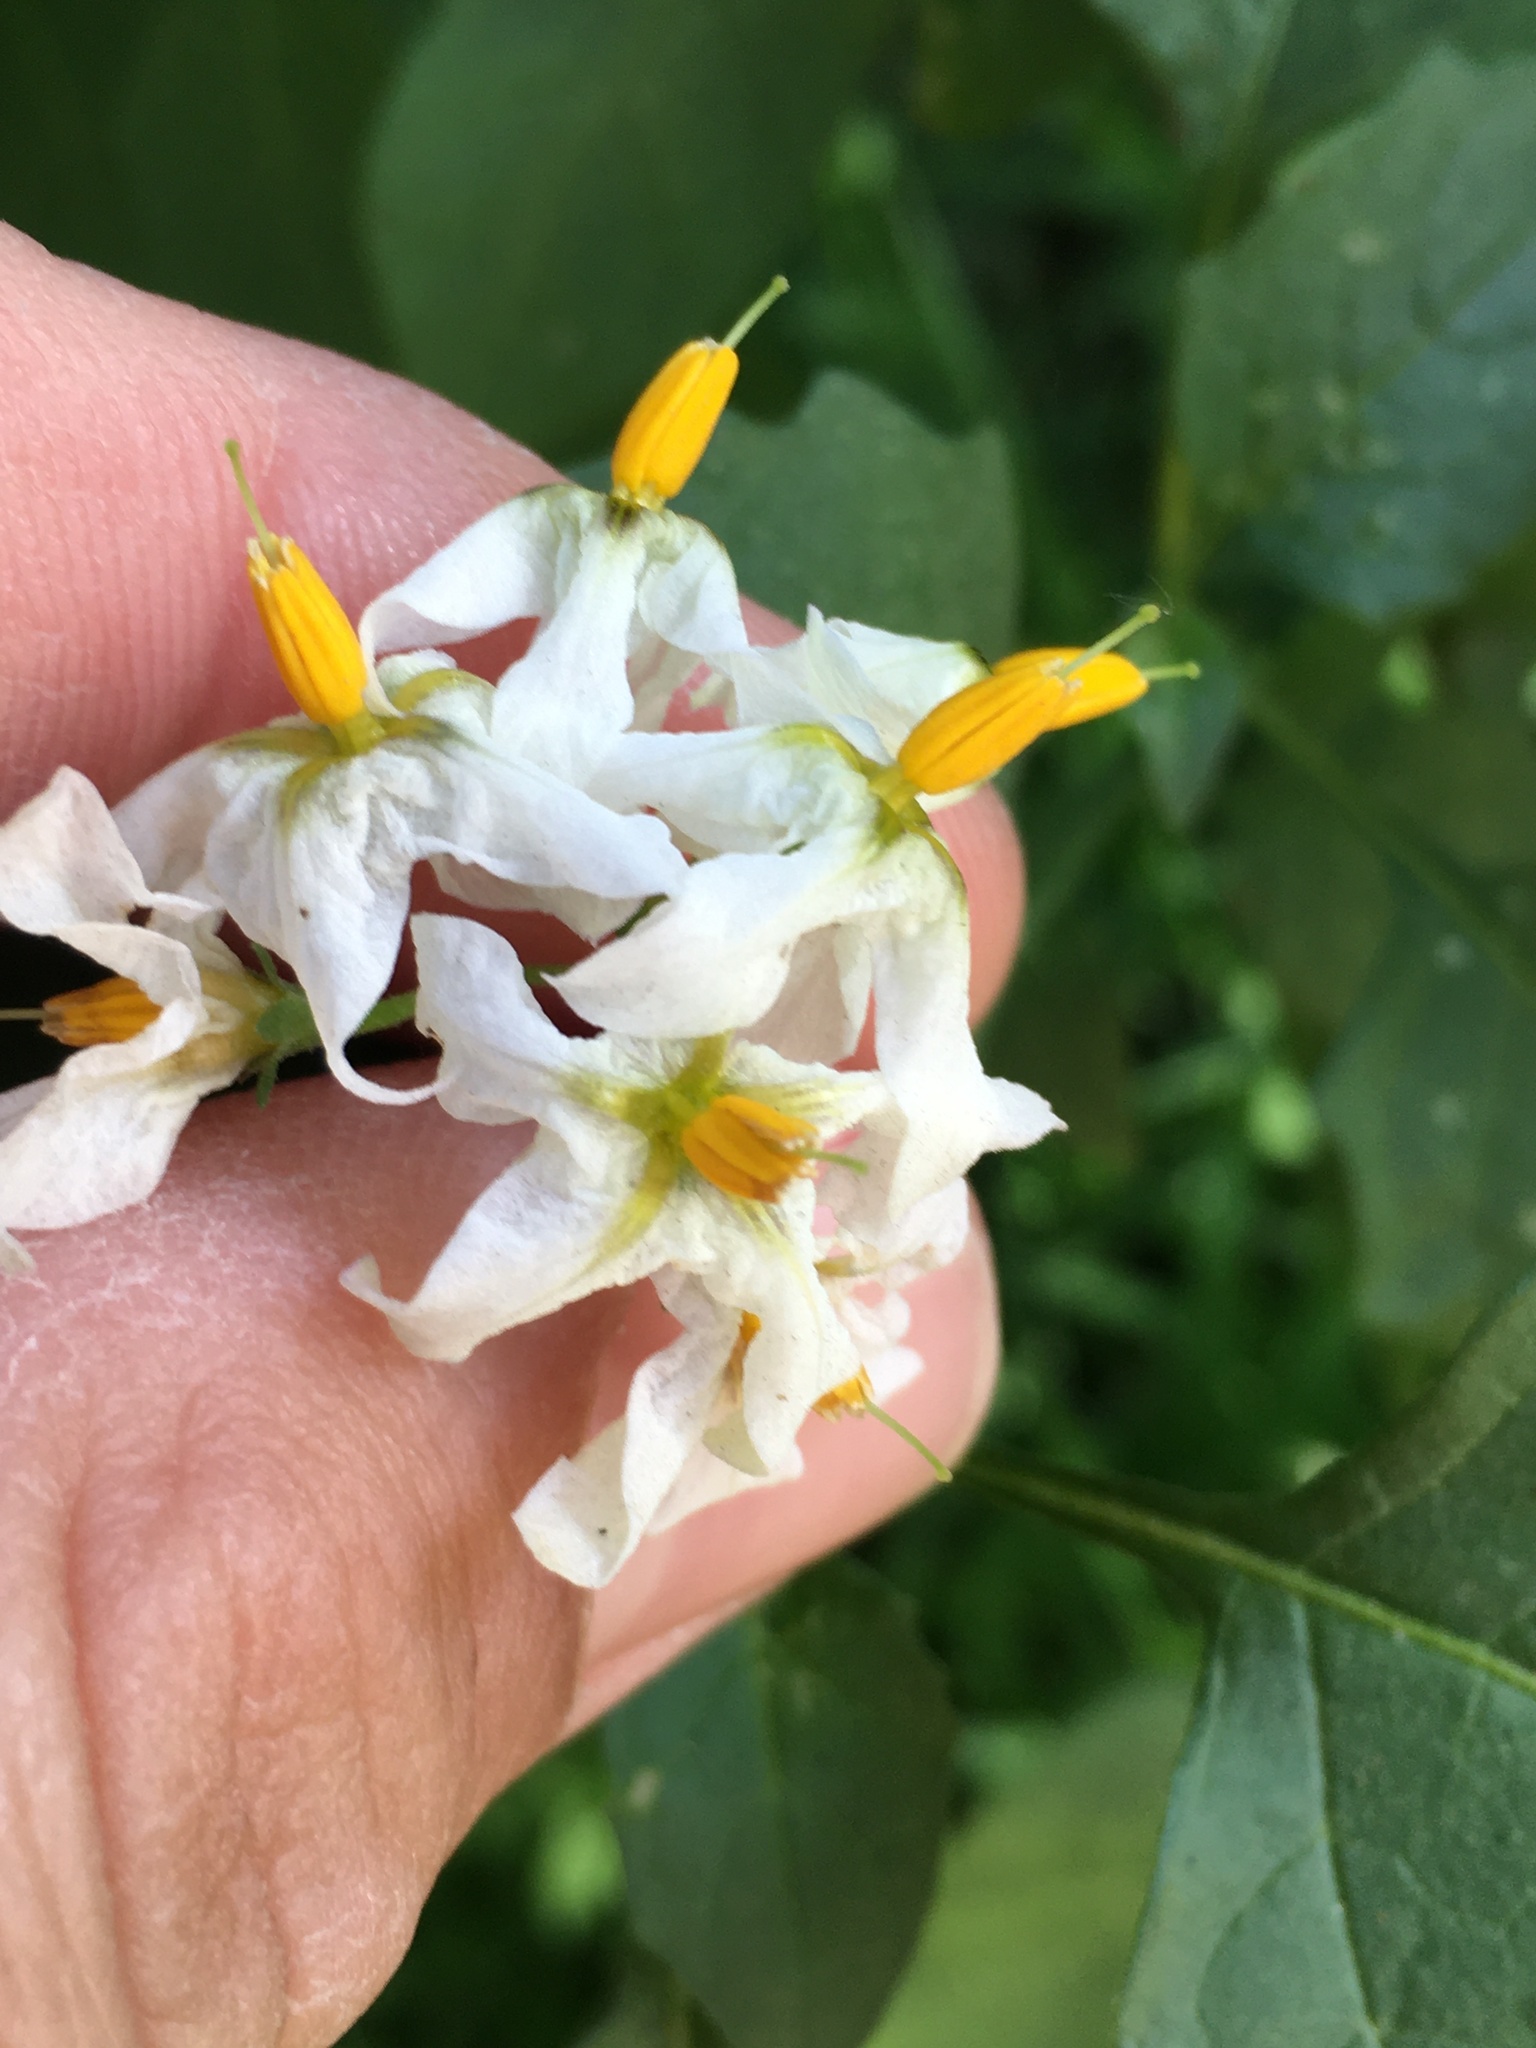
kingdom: Plantae
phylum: Tracheophyta
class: Magnoliopsida
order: Solanales
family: Solanaceae
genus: Solanum
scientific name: Solanum douglasii
